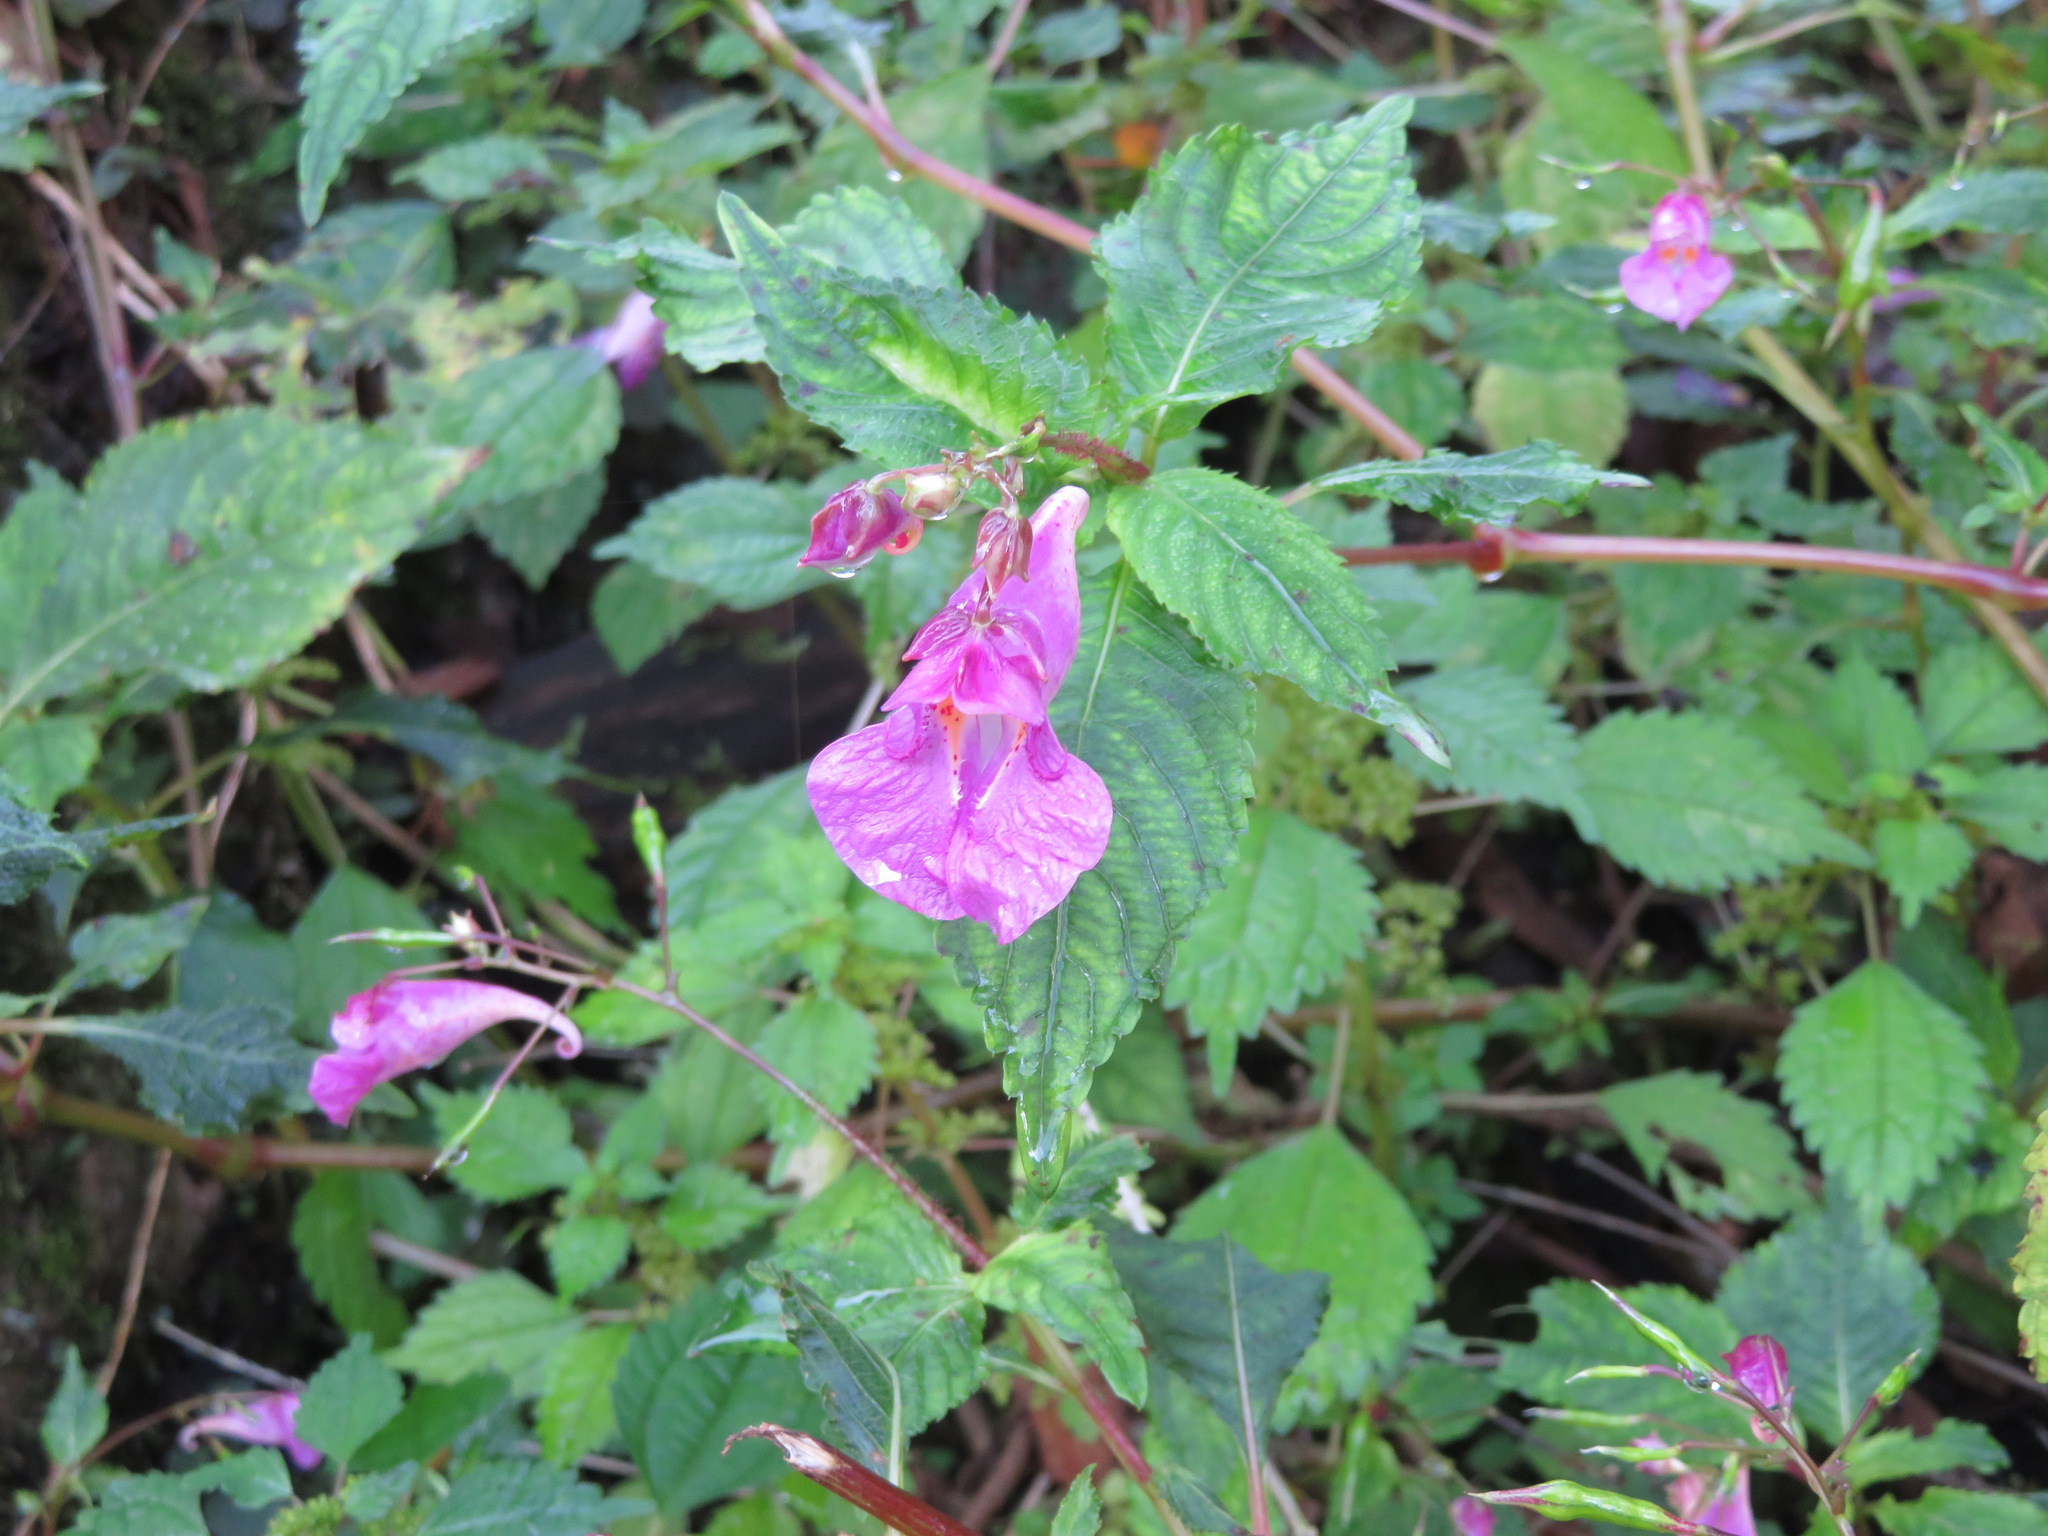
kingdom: Plantae
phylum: Tracheophyta
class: Magnoliopsida
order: Ericales
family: Balsaminaceae
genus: Impatiens
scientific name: Impatiens textorii
